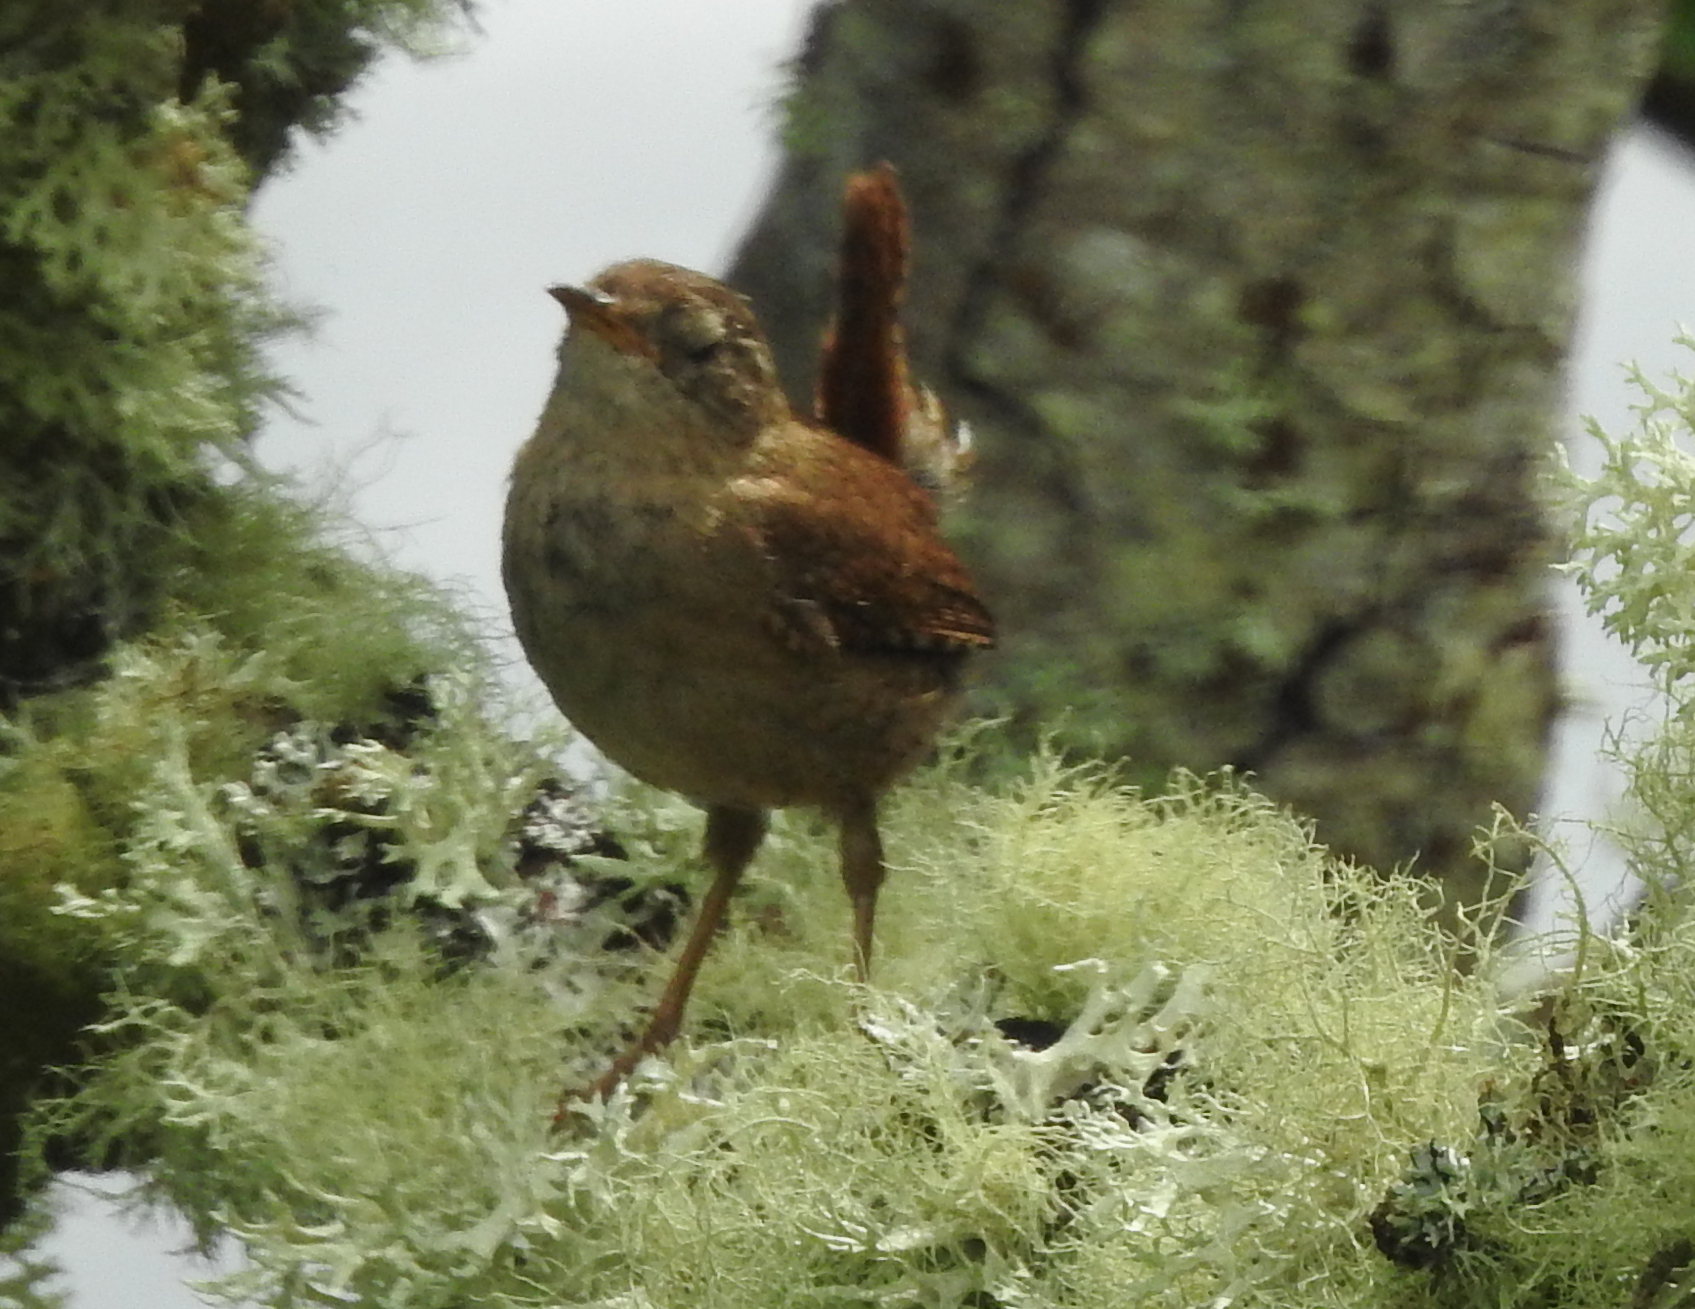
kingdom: Animalia
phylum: Chordata
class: Aves
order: Passeriformes
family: Troglodytidae
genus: Troglodytes
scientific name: Troglodytes troglodytes
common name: Eurasian wren
